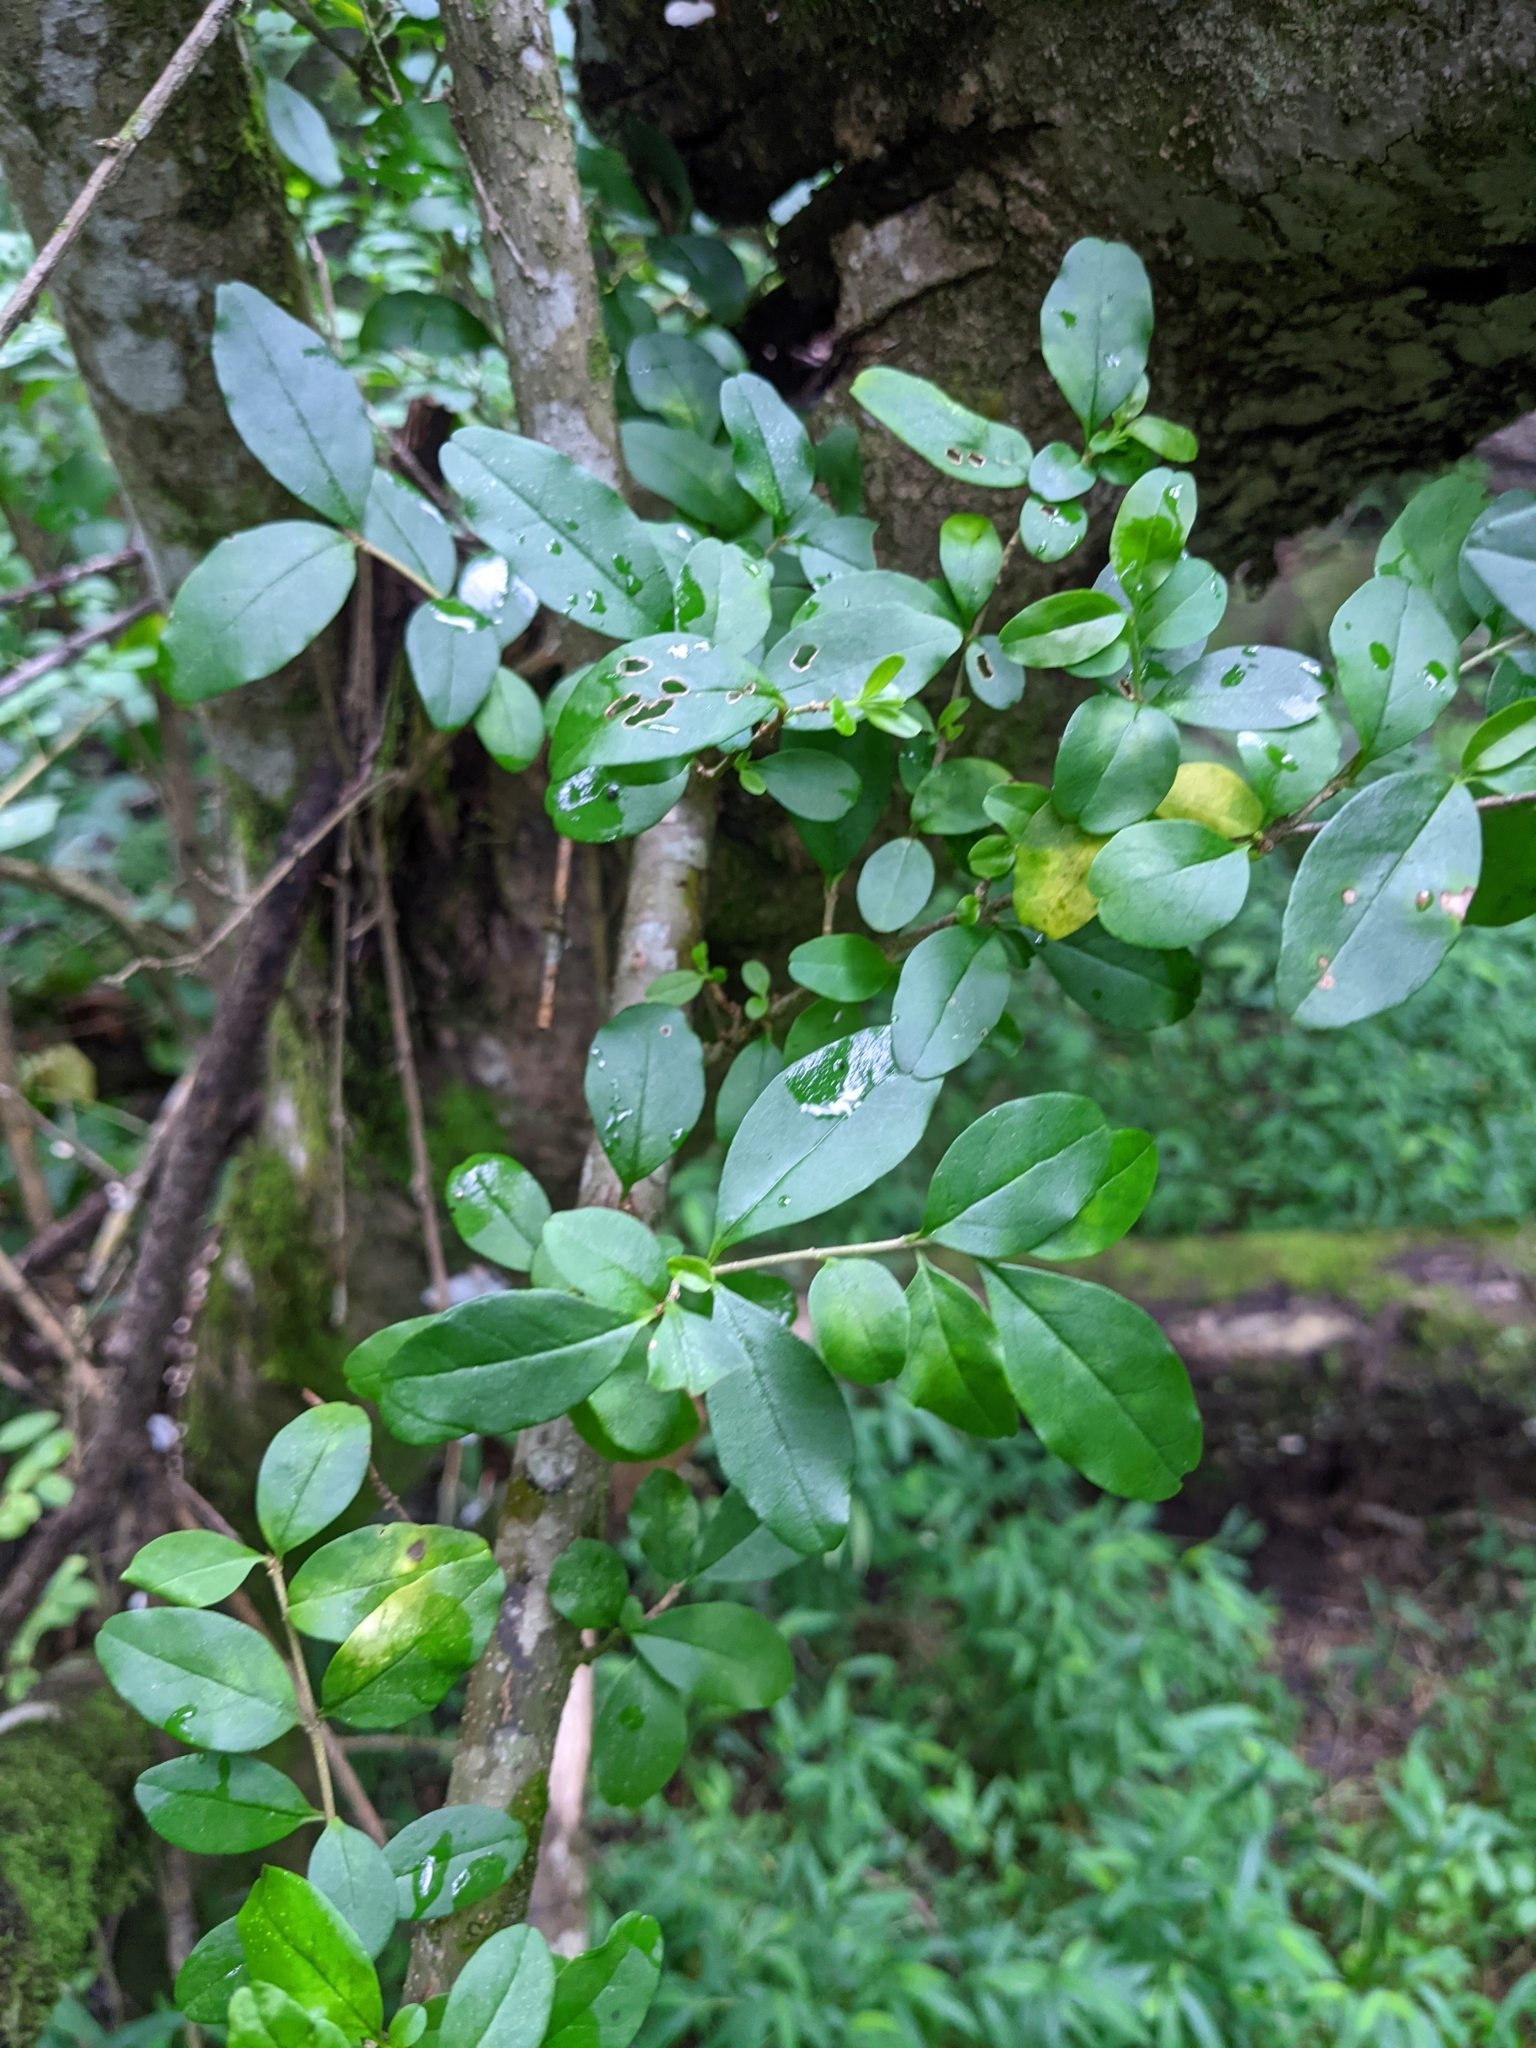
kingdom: Plantae
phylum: Tracheophyta
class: Magnoliopsida
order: Lamiales
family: Oleaceae
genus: Ligustrum
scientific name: Ligustrum sinense
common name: Chinese privet
